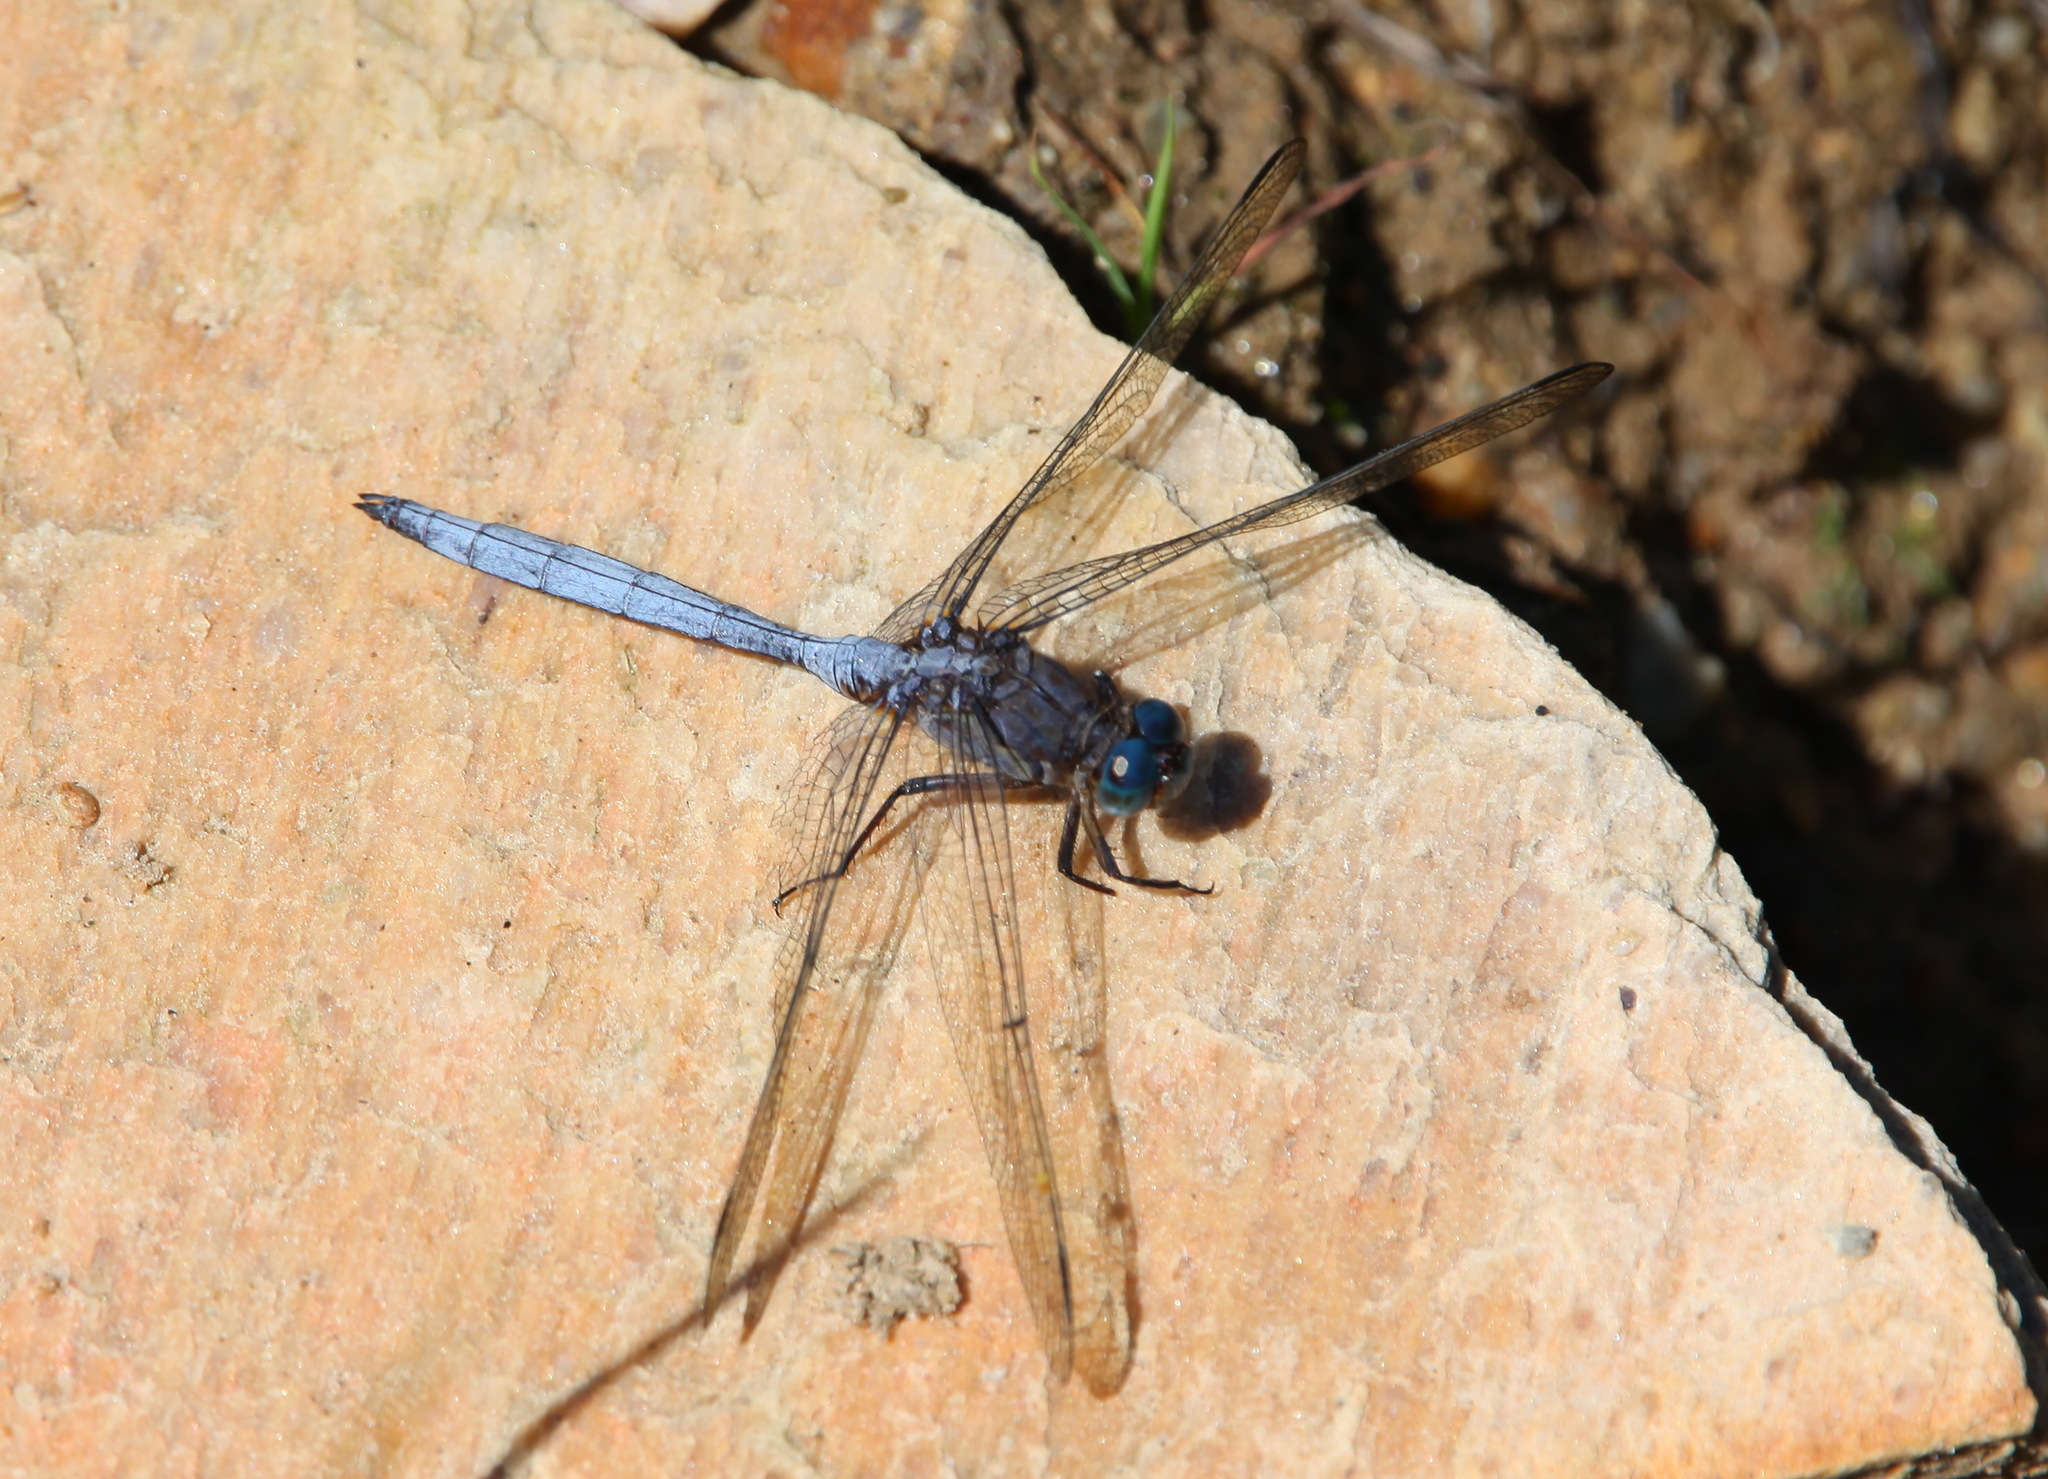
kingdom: Animalia
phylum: Arthropoda
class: Insecta
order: Odonata
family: Libellulidae
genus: Orthetrum
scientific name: Orthetrum julia
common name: Julia skimmer
